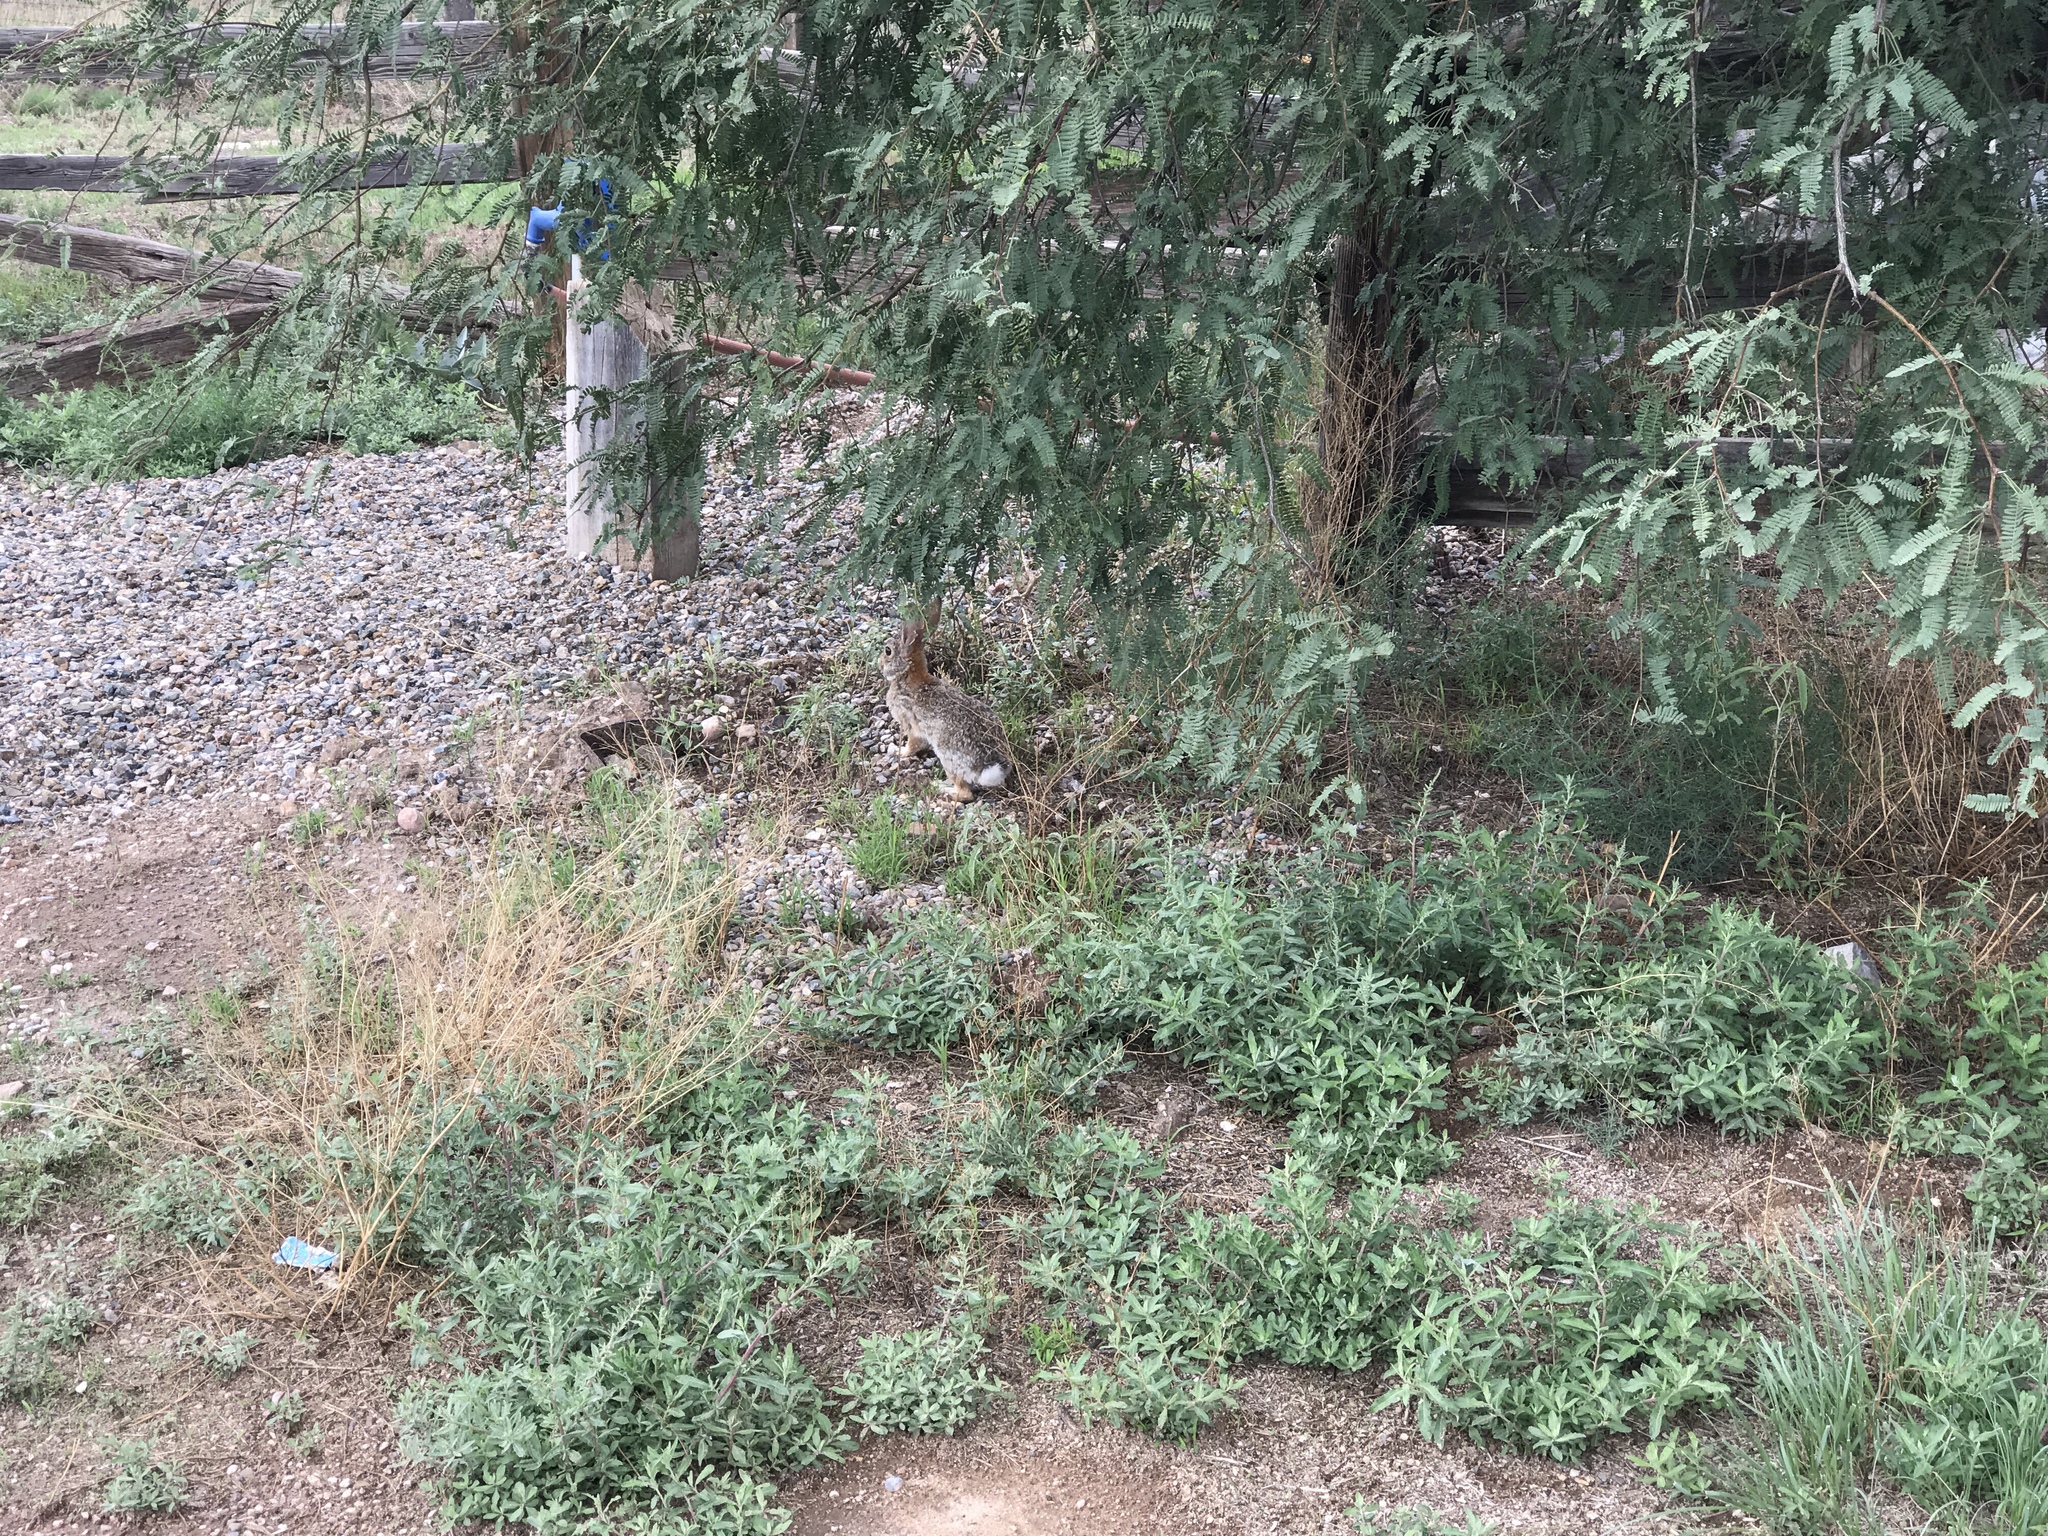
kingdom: Animalia
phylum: Chordata
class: Mammalia
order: Lagomorpha
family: Leporidae
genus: Sylvilagus
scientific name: Sylvilagus audubonii
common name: Desert cottontail
